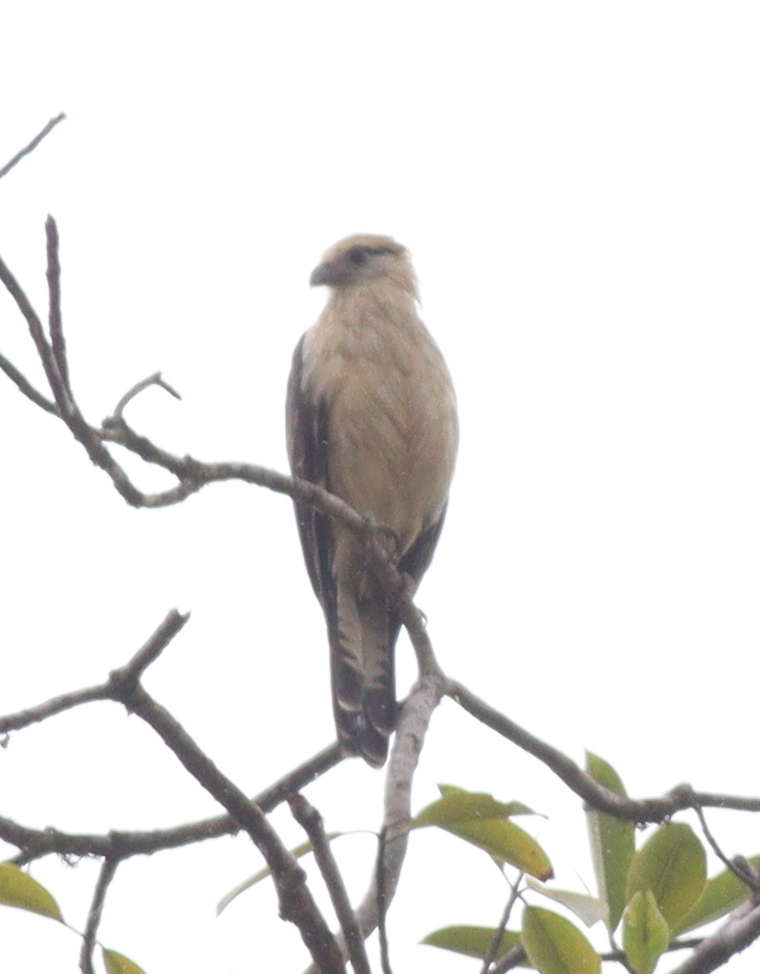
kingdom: Animalia
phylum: Chordata
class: Aves
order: Falconiformes
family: Falconidae
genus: Daptrius
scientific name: Daptrius
